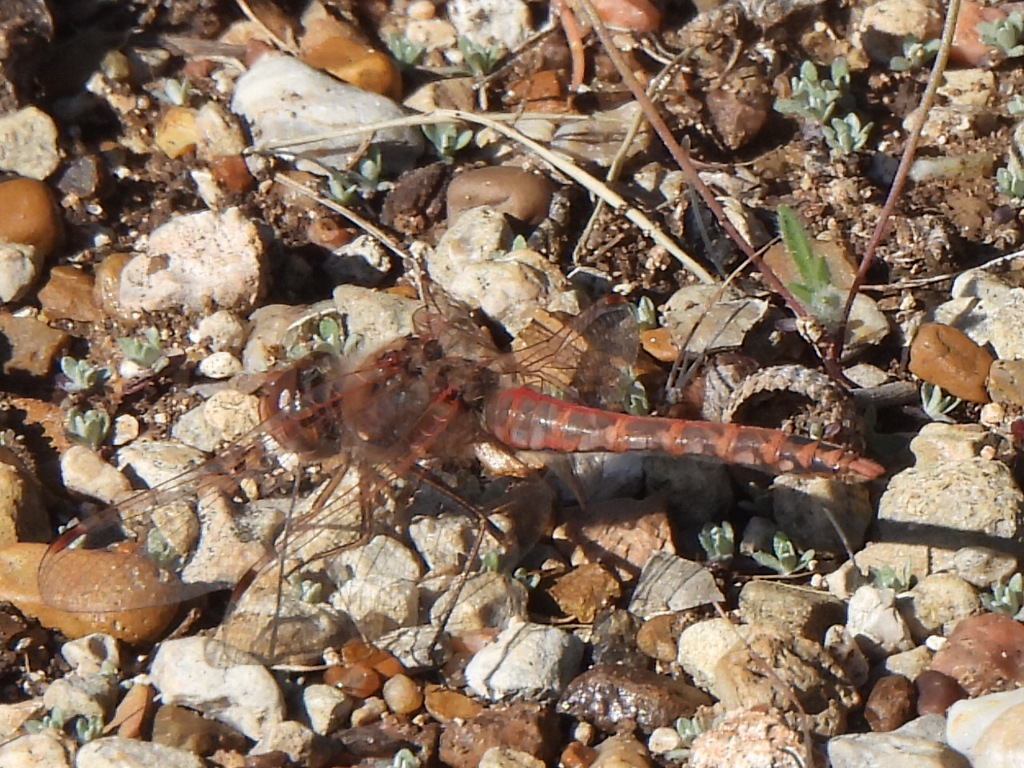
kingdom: Animalia
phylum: Arthropoda
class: Insecta
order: Odonata
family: Libellulidae
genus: Sympetrum
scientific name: Sympetrum corruptum
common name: Variegated meadowhawk
